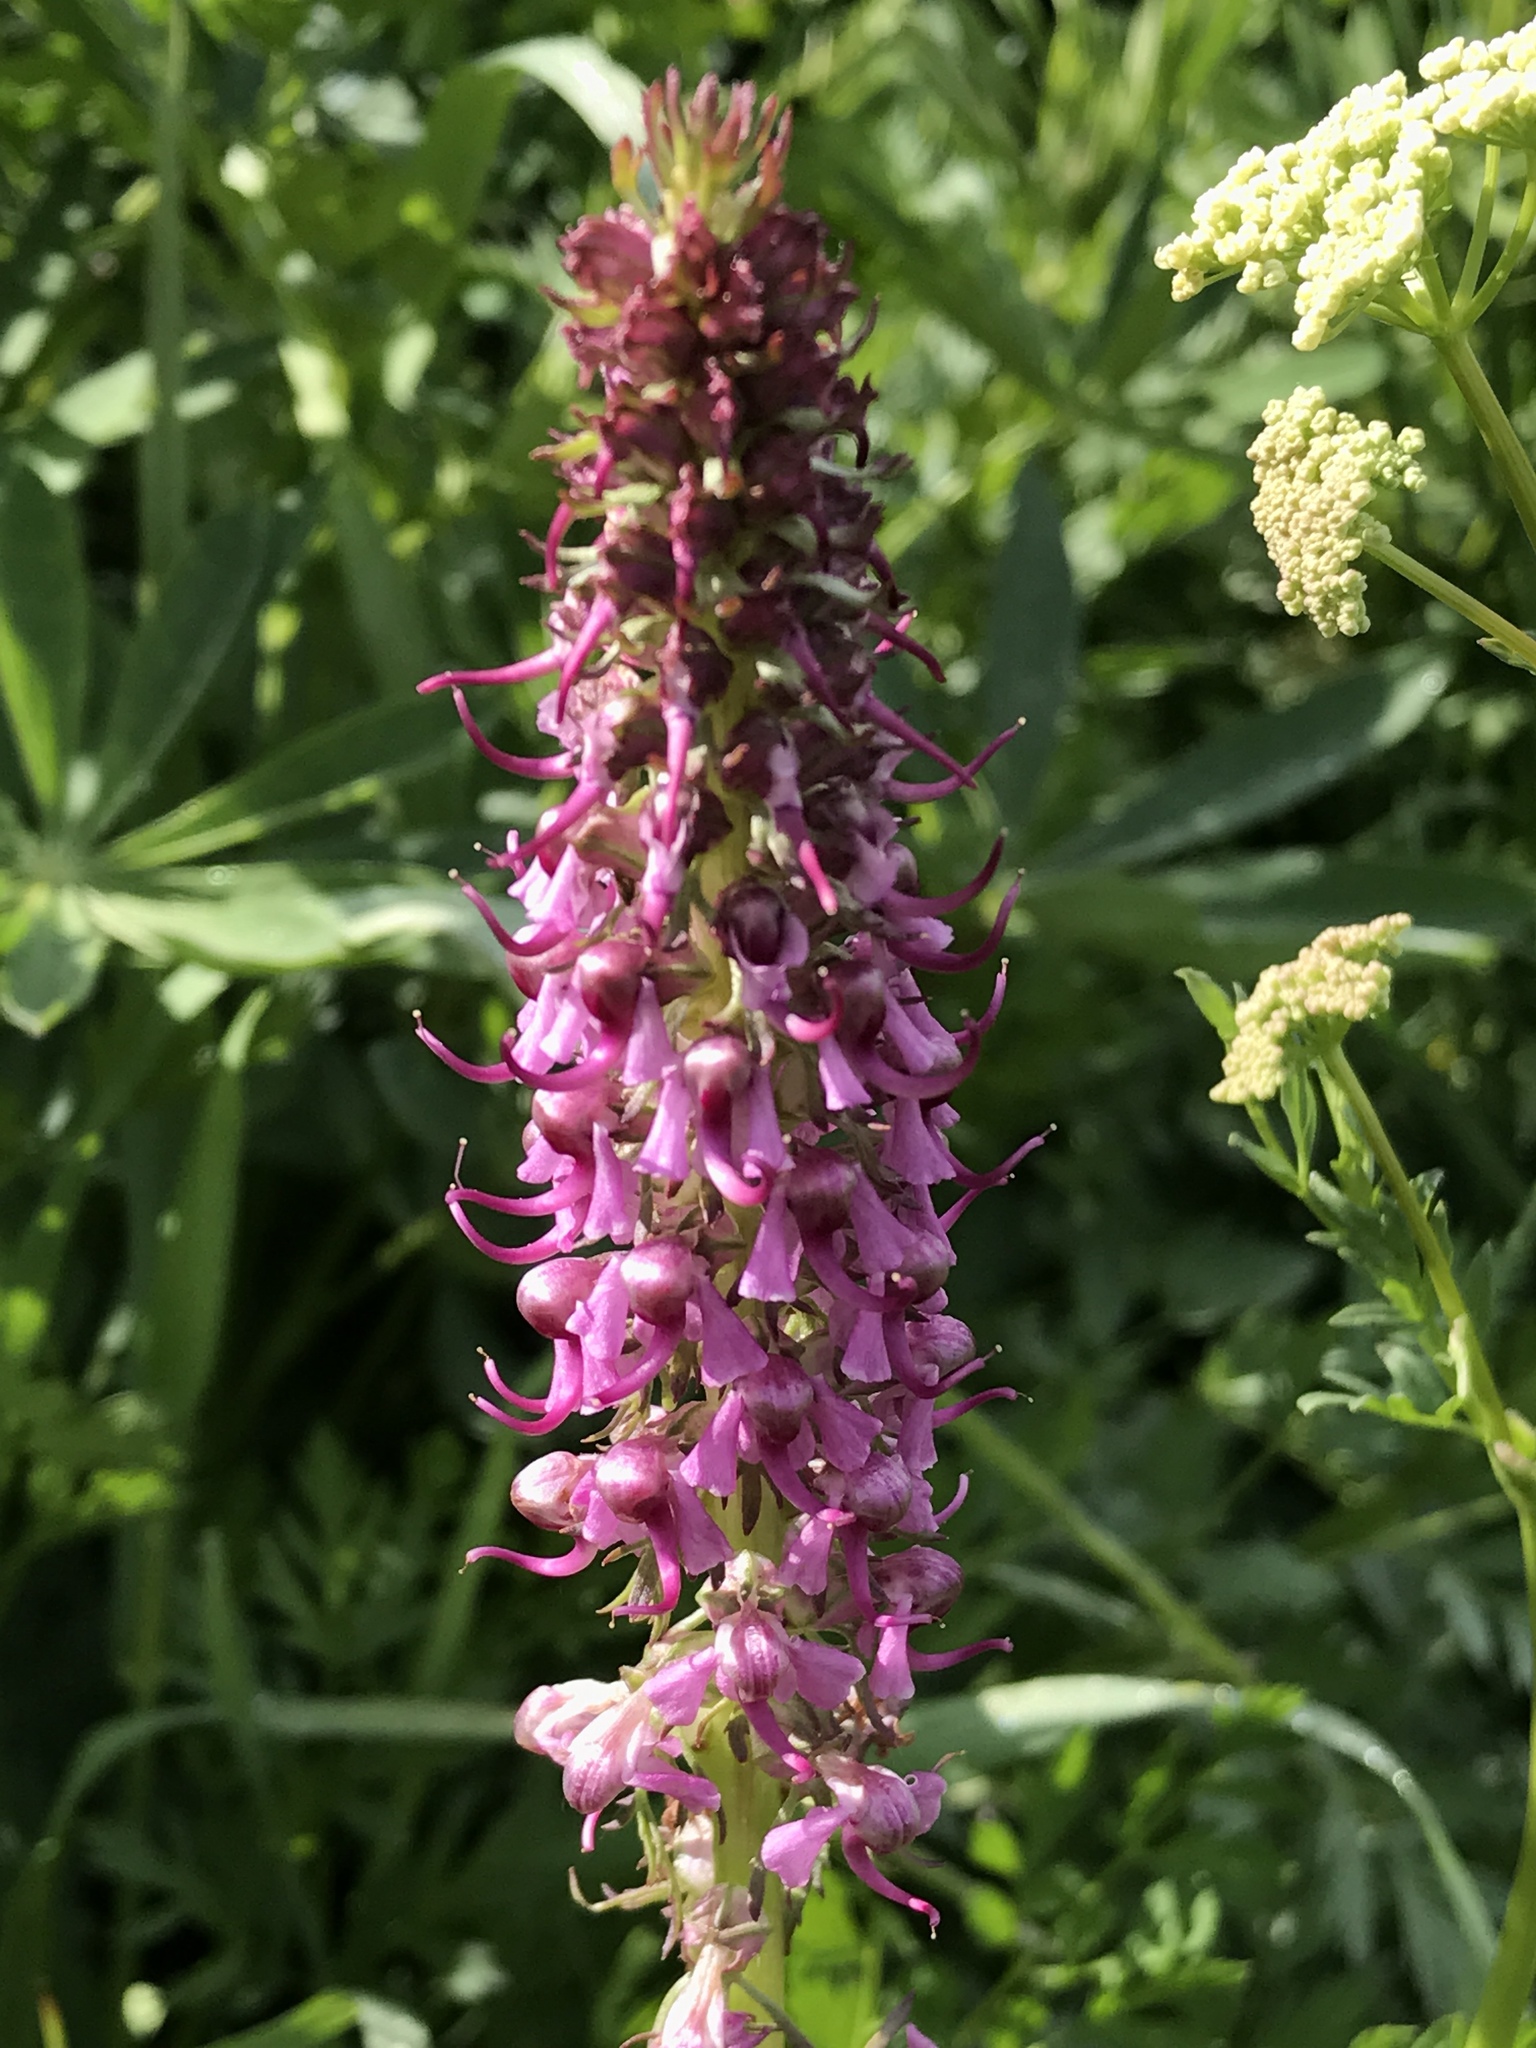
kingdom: Plantae
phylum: Tracheophyta
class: Magnoliopsida
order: Lamiales
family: Orobanchaceae
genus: Pedicularis
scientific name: Pedicularis groenlandica
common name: Elephant's-head
